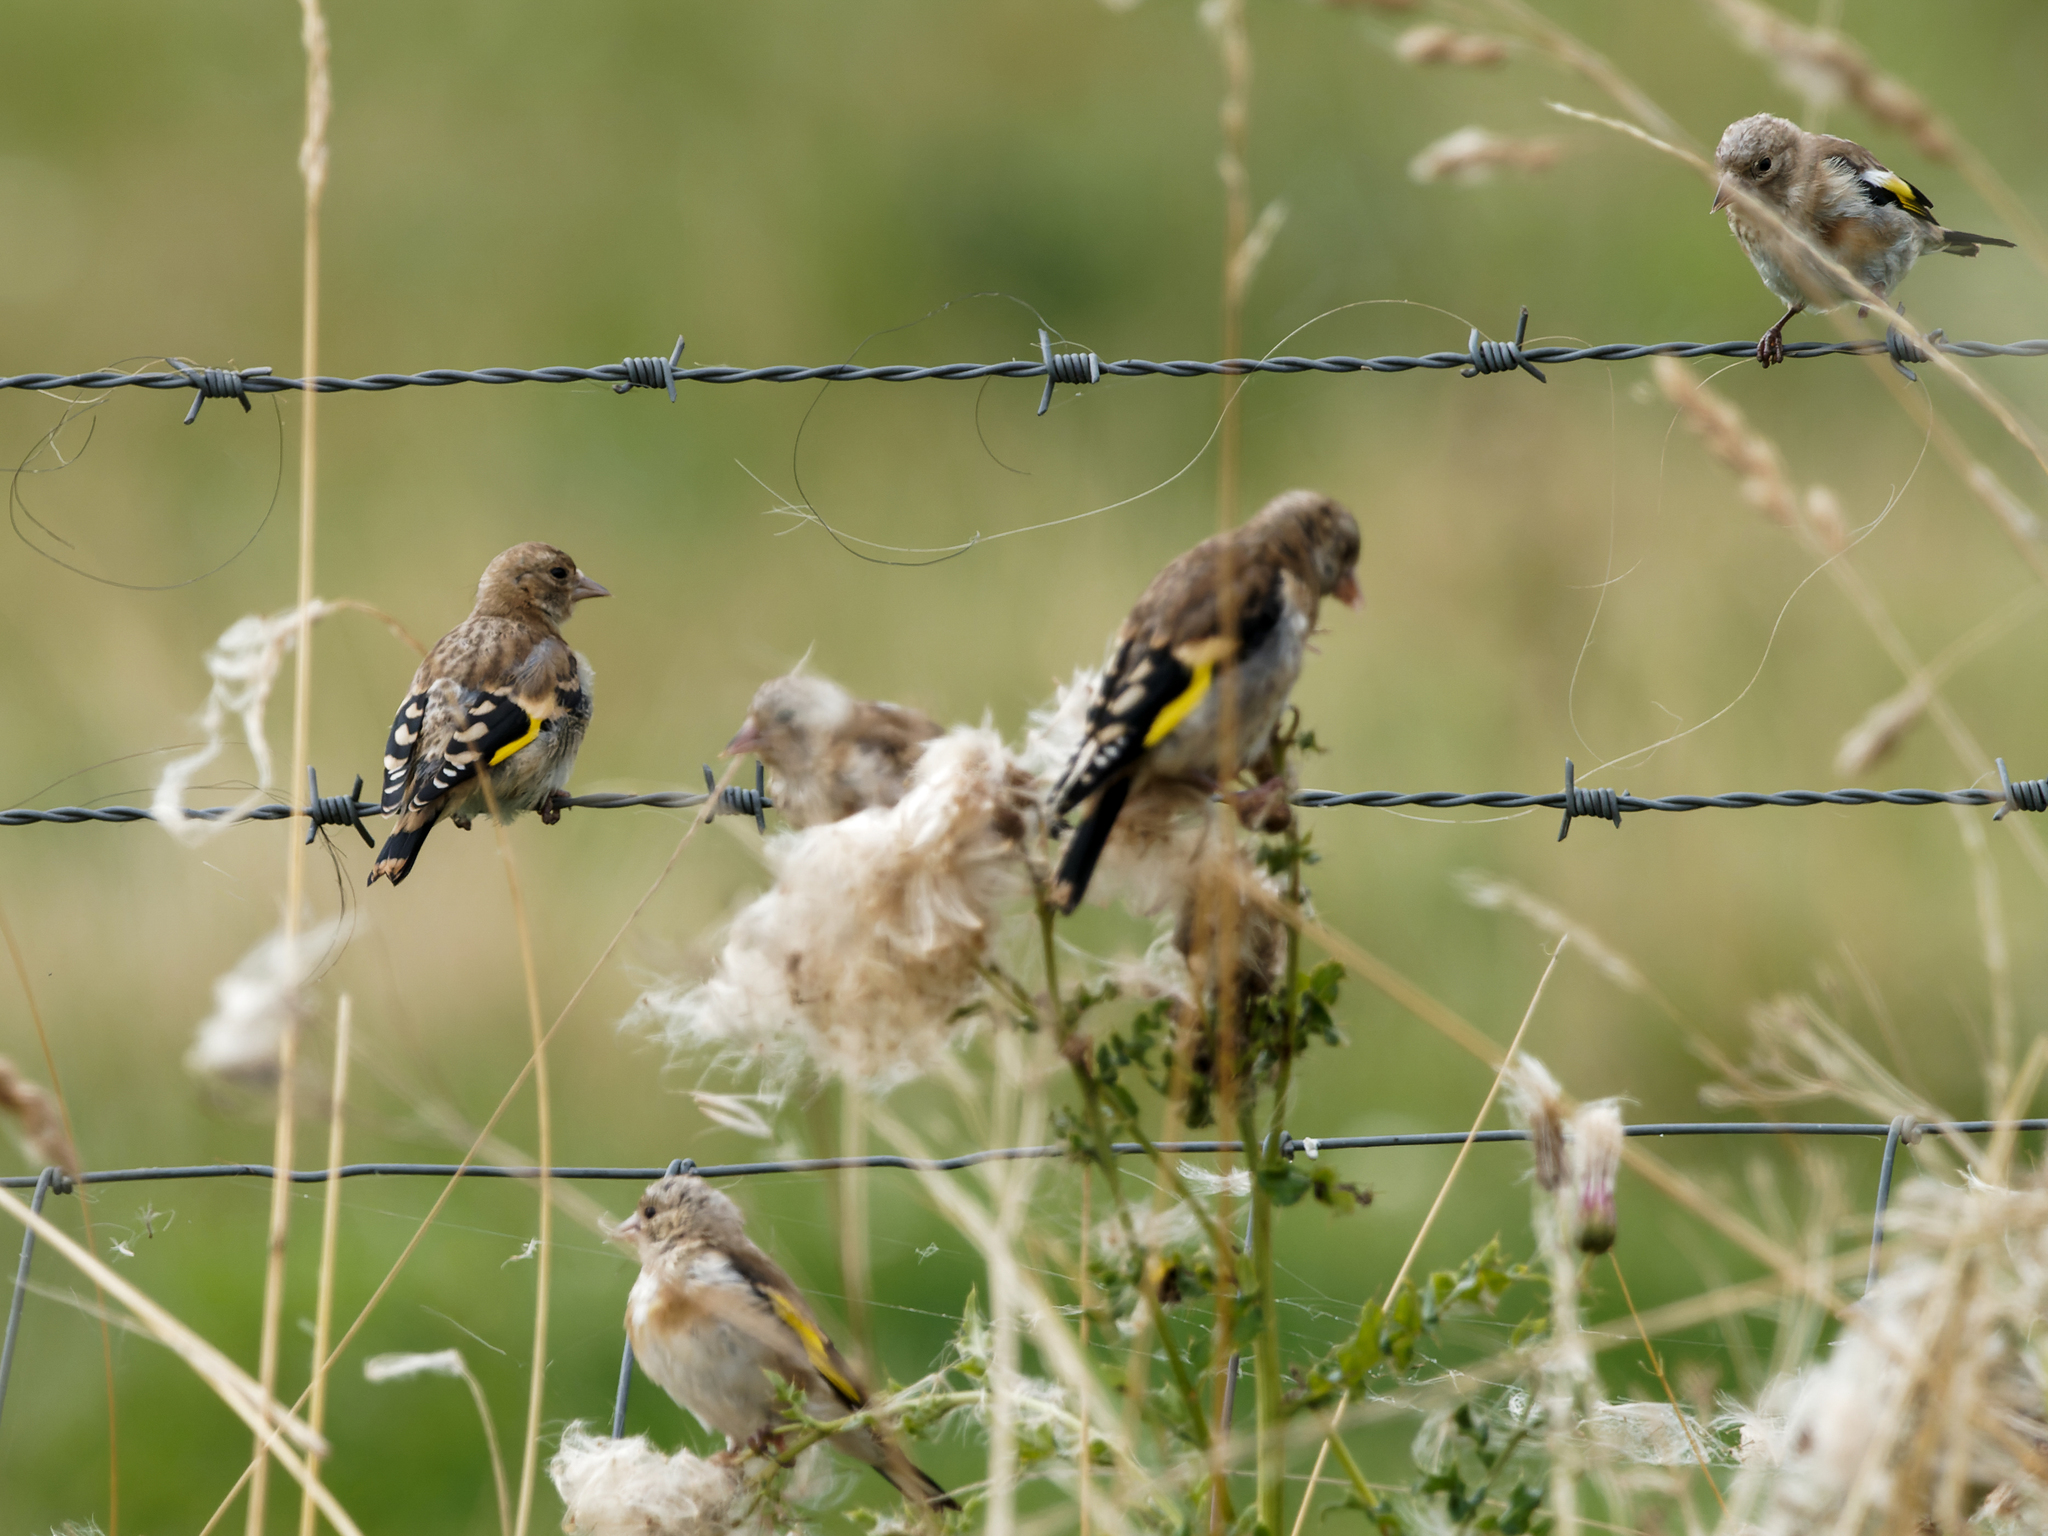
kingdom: Animalia
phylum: Chordata
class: Aves
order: Passeriformes
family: Fringillidae
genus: Carduelis
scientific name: Carduelis carduelis
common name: European goldfinch
